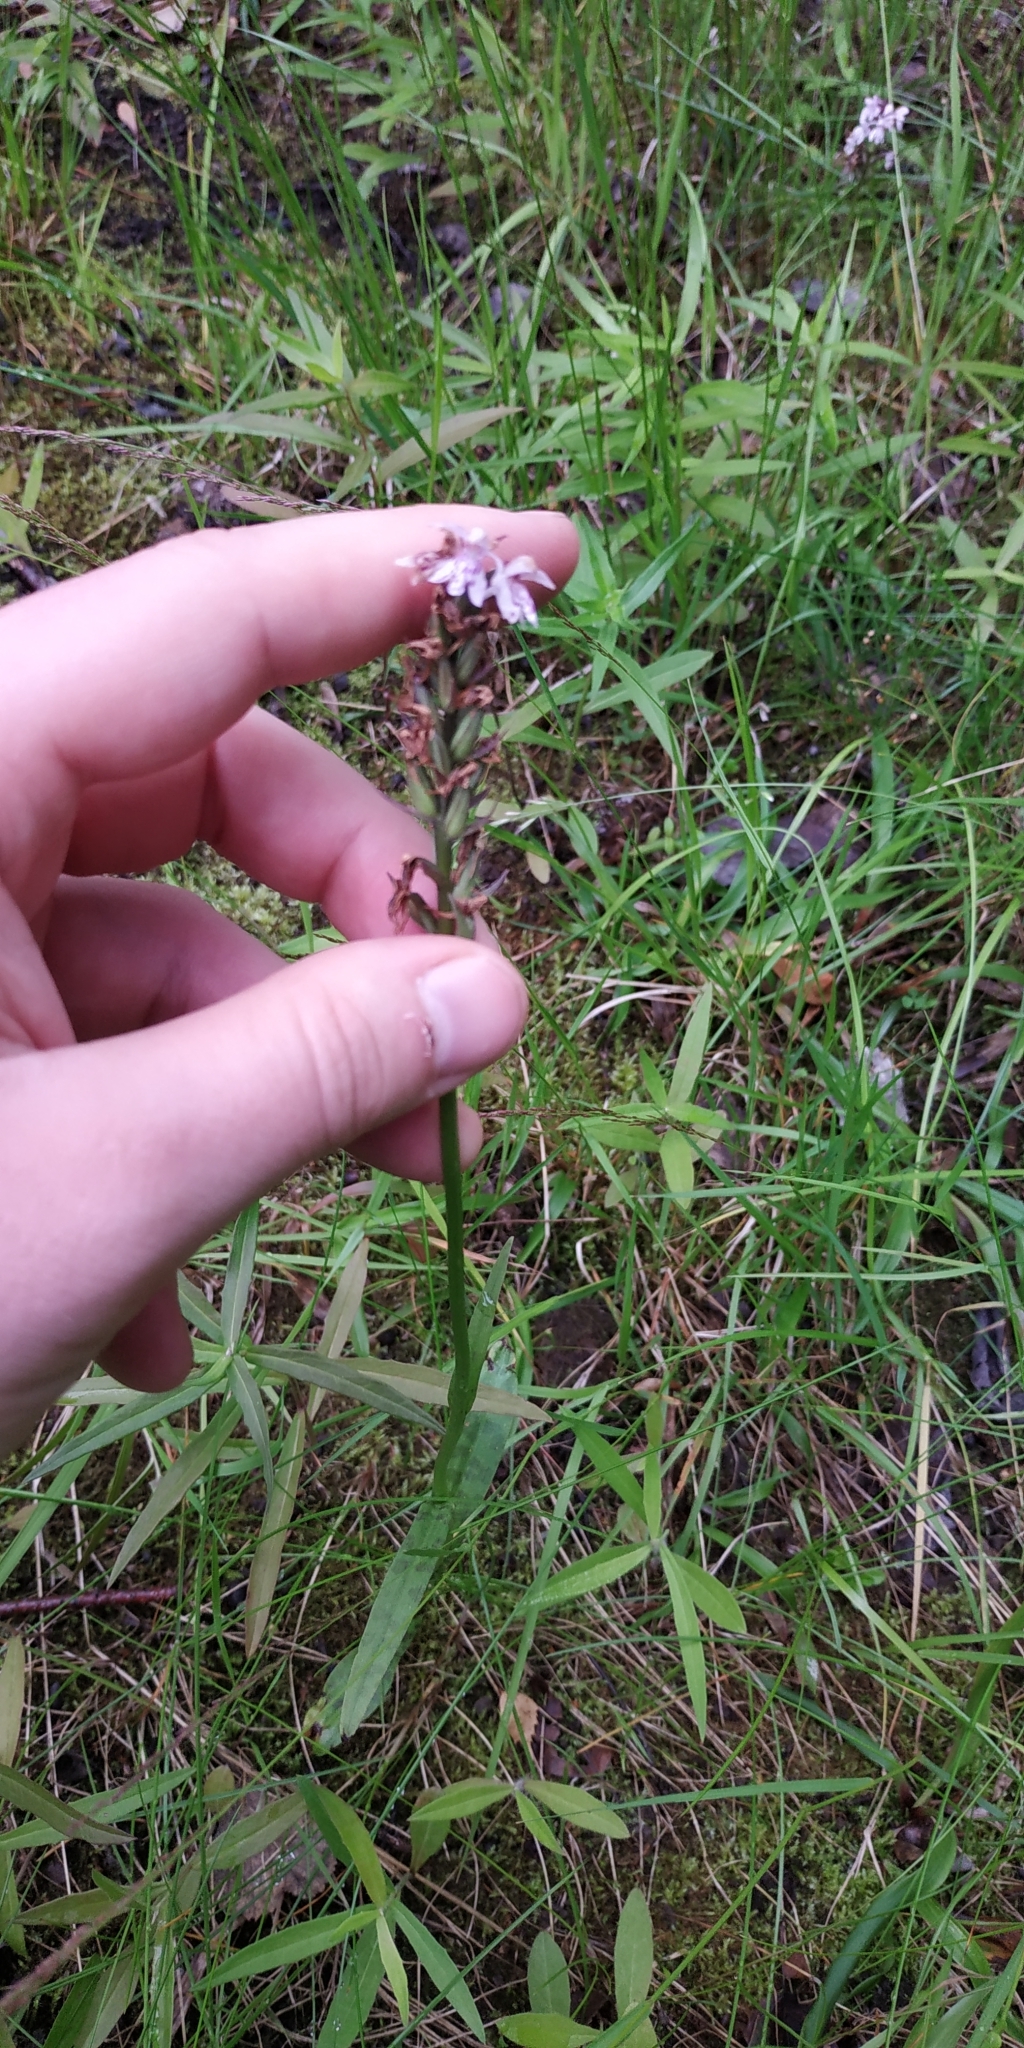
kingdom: Plantae
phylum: Tracheophyta
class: Liliopsida
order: Asparagales
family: Orchidaceae
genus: Dactylorhiza
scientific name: Dactylorhiza maculata
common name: Heath spotted-orchid
